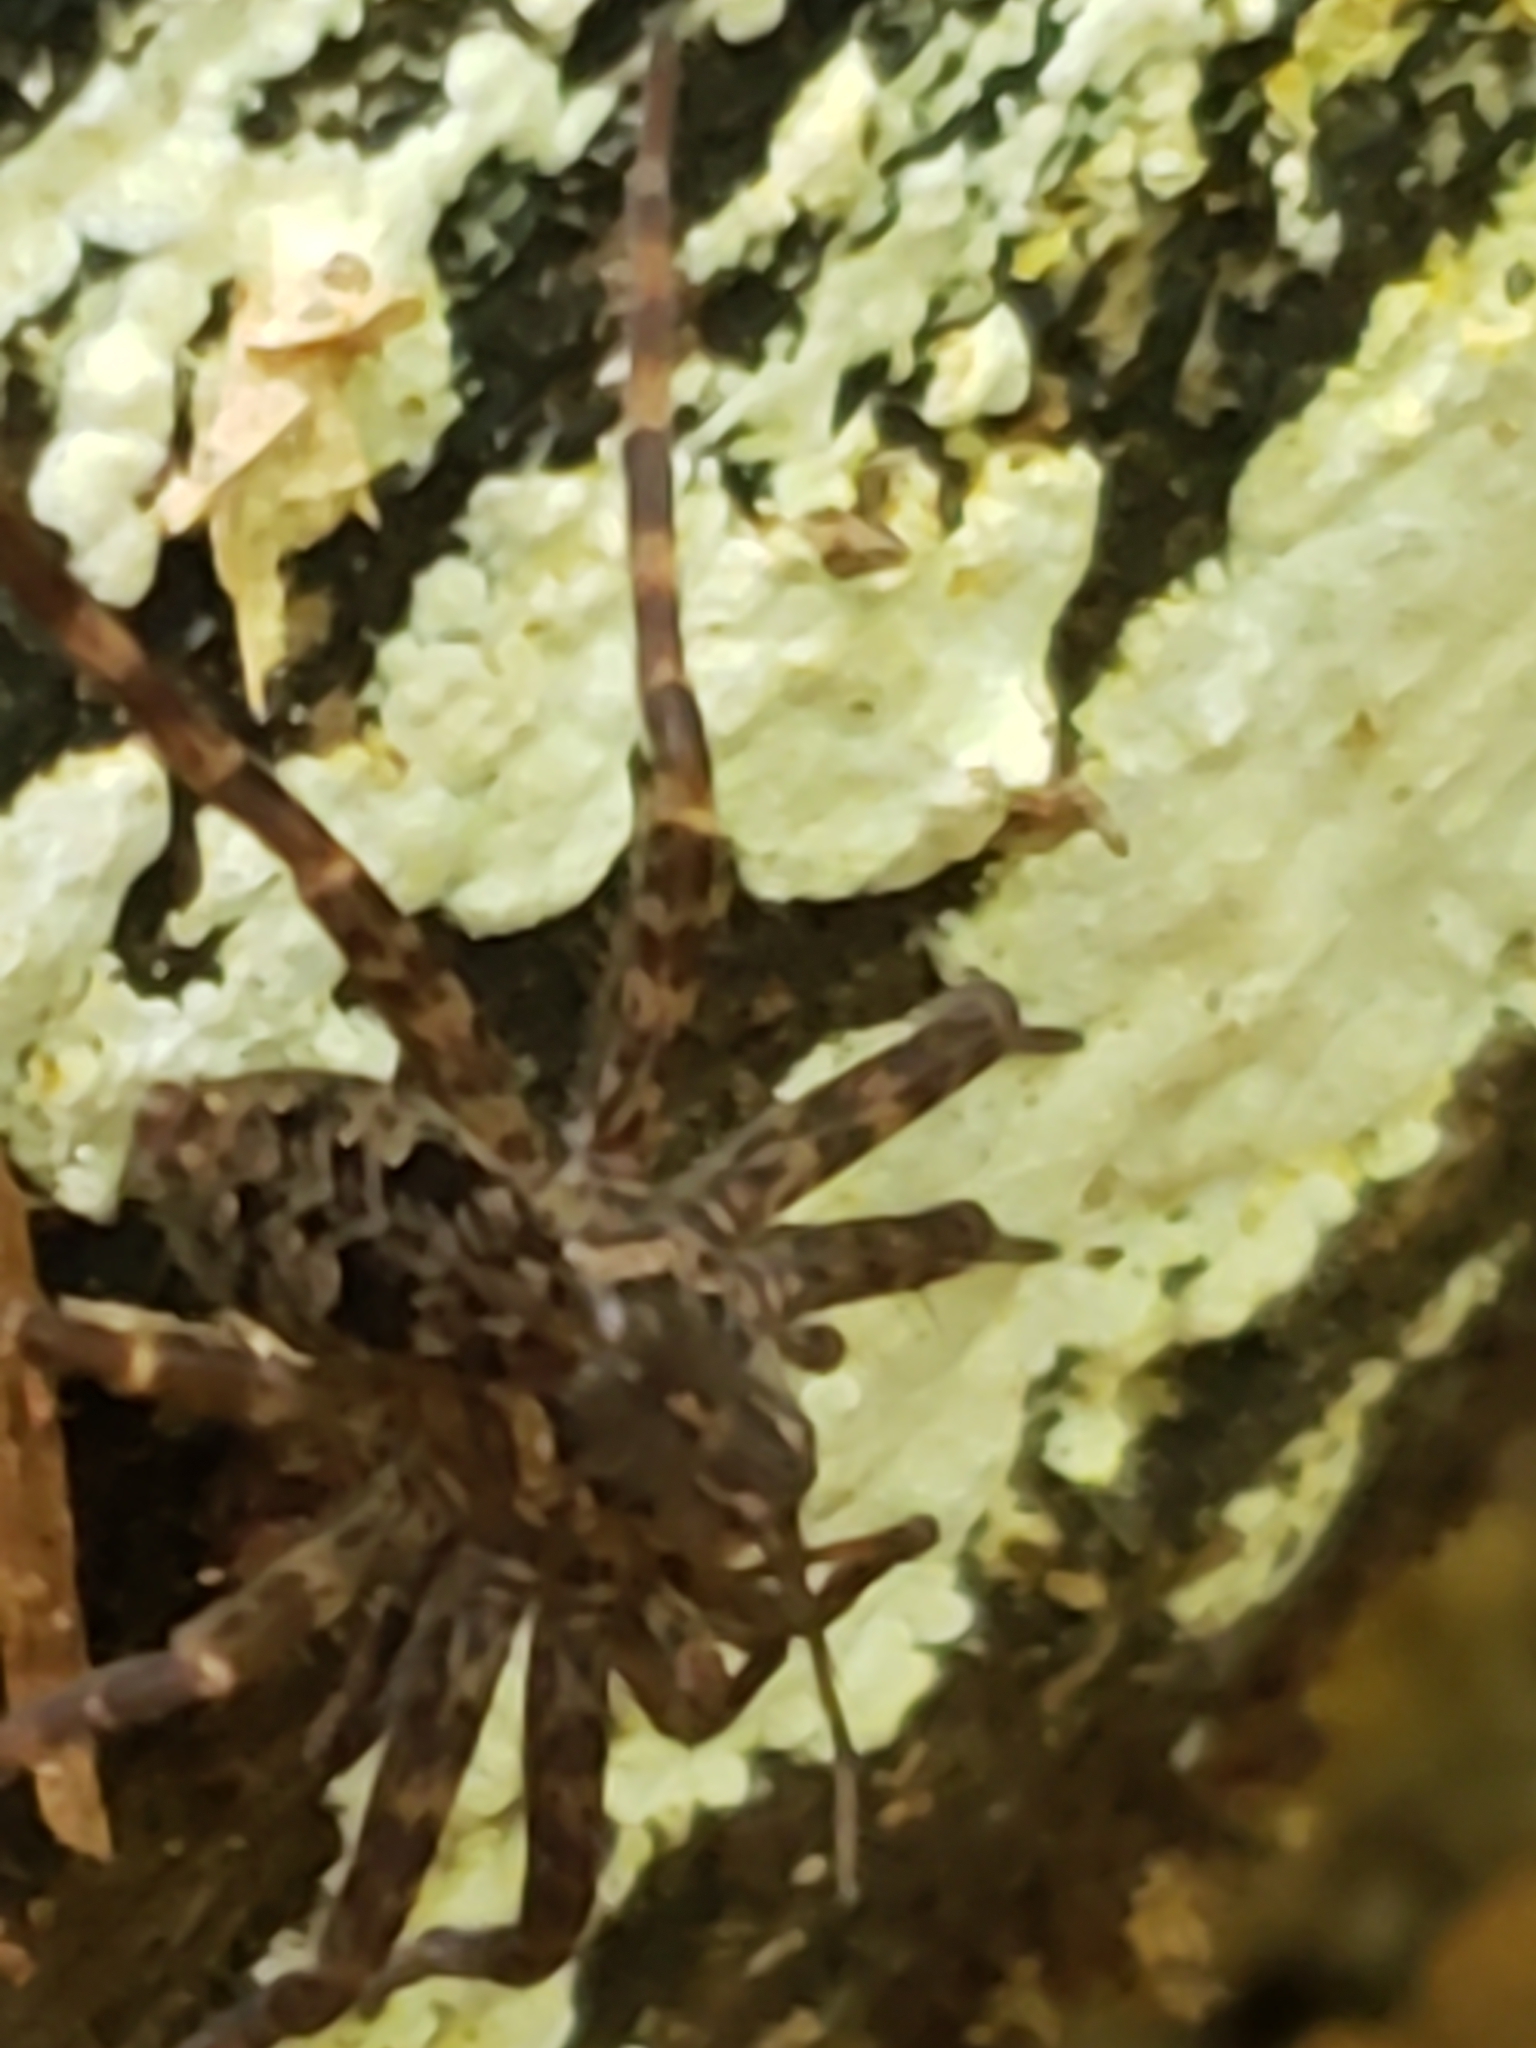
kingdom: Animalia
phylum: Arthropoda
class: Arachnida
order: Araneae
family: Pisauridae
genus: Dolomedes
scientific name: Dolomedes tenebrosus
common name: Dark fishing spider
